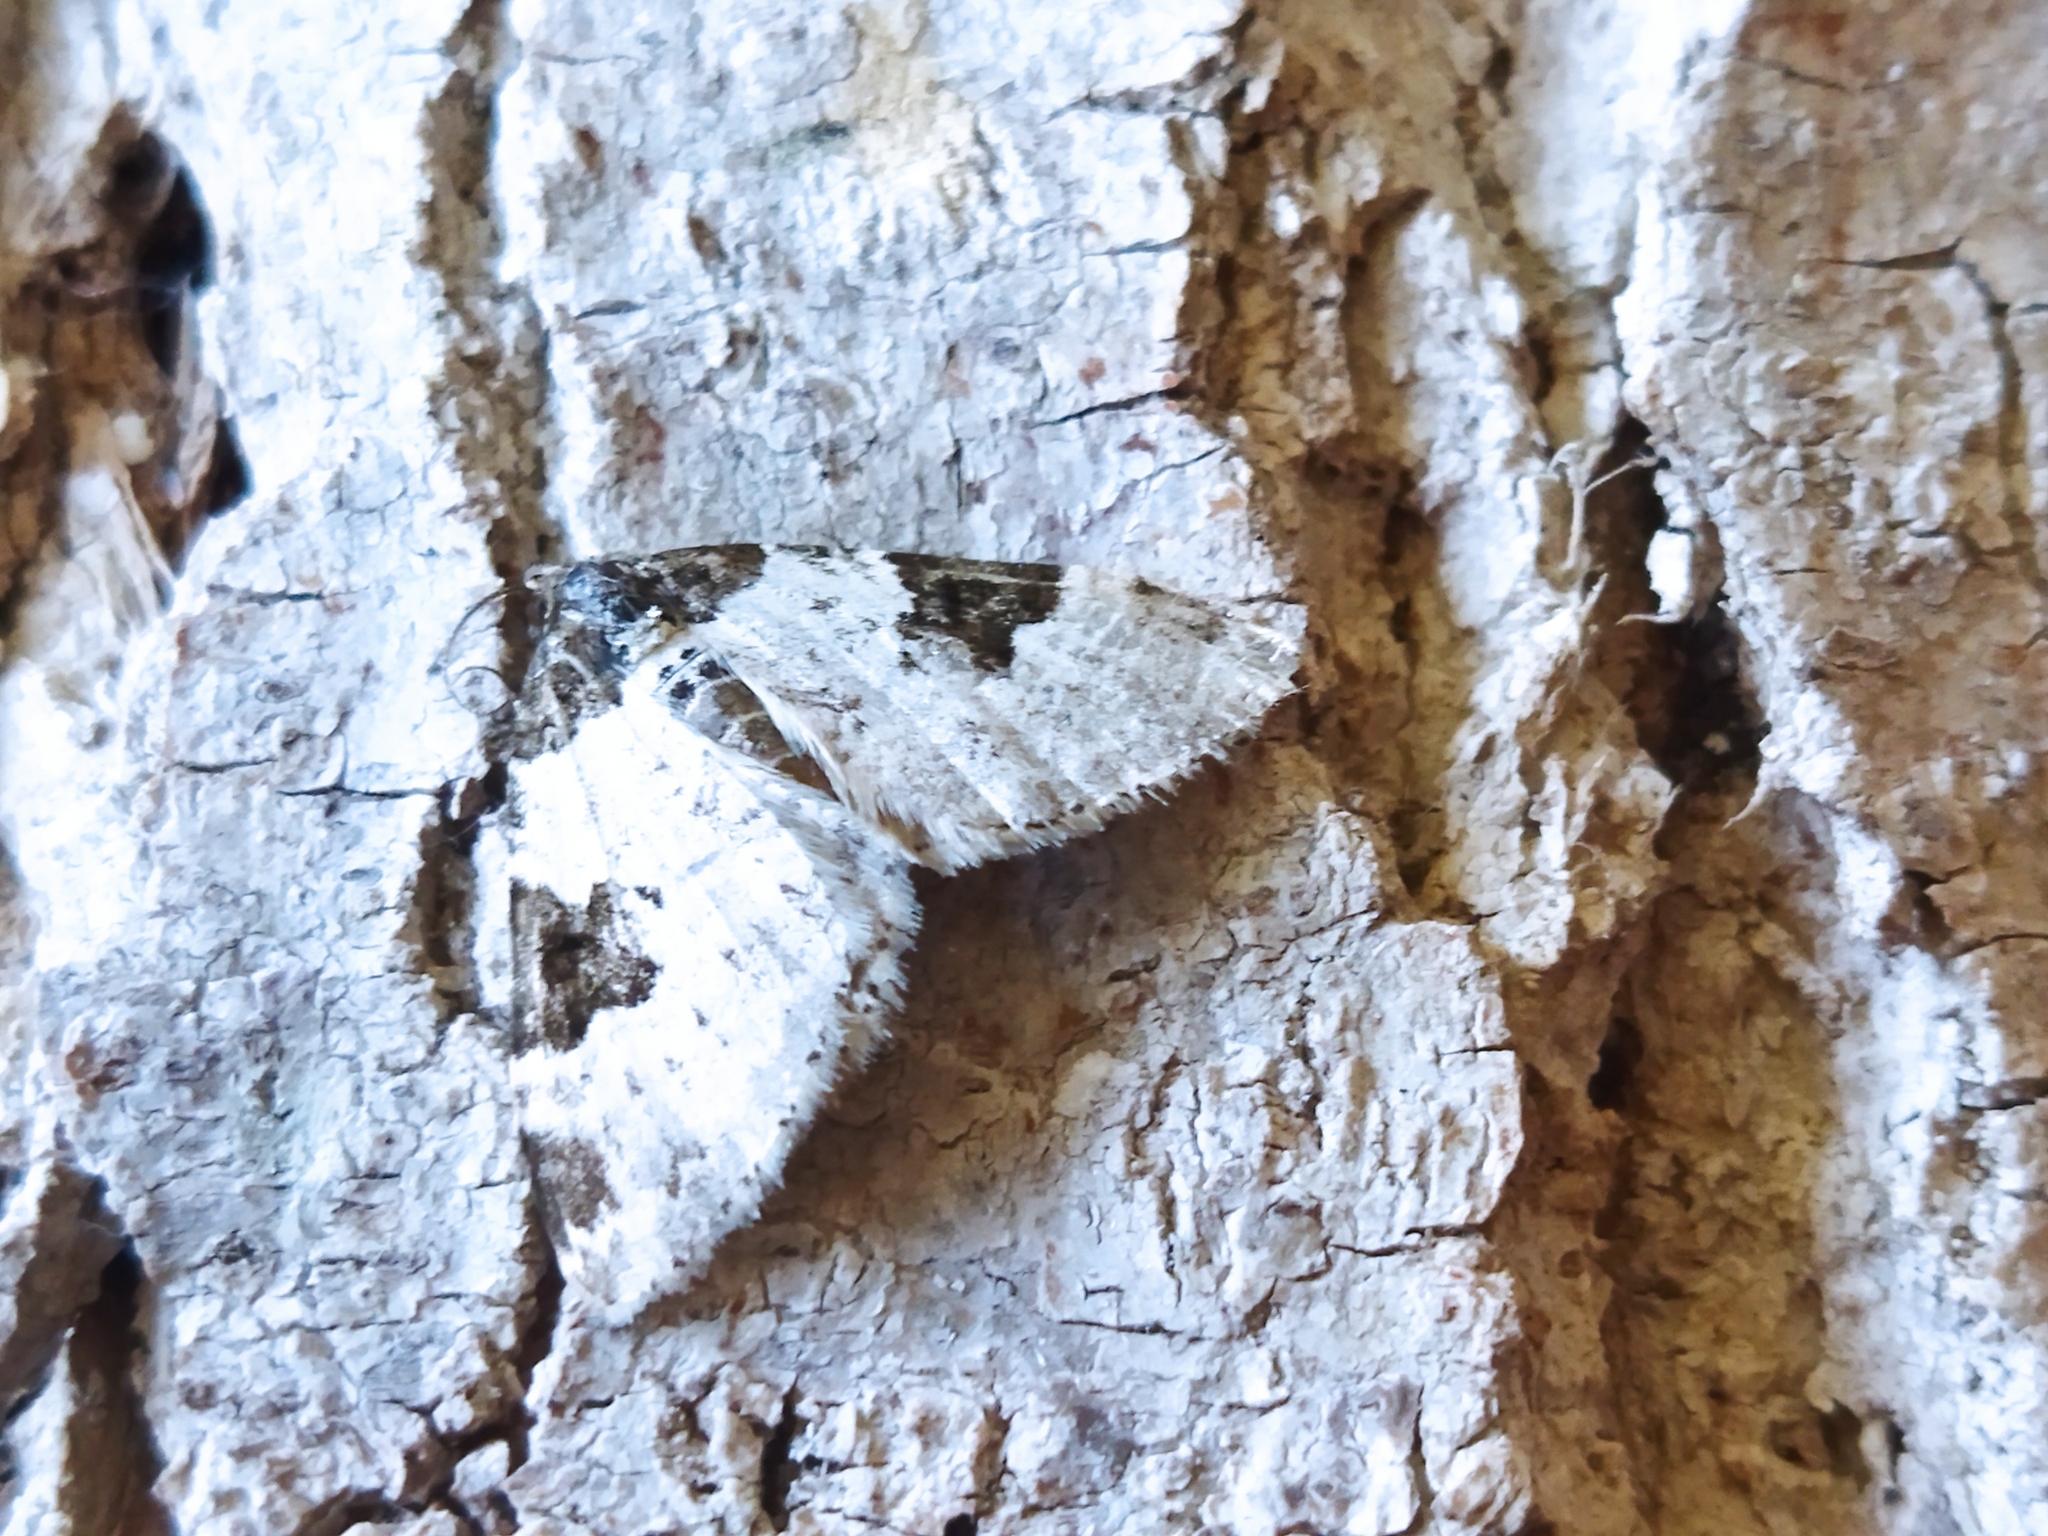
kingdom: Animalia
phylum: Arthropoda
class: Insecta
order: Lepidoptera
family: Geometridae
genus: Xanthorhoe
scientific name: Xanthorhoe fluctuata
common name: Garden carpet
